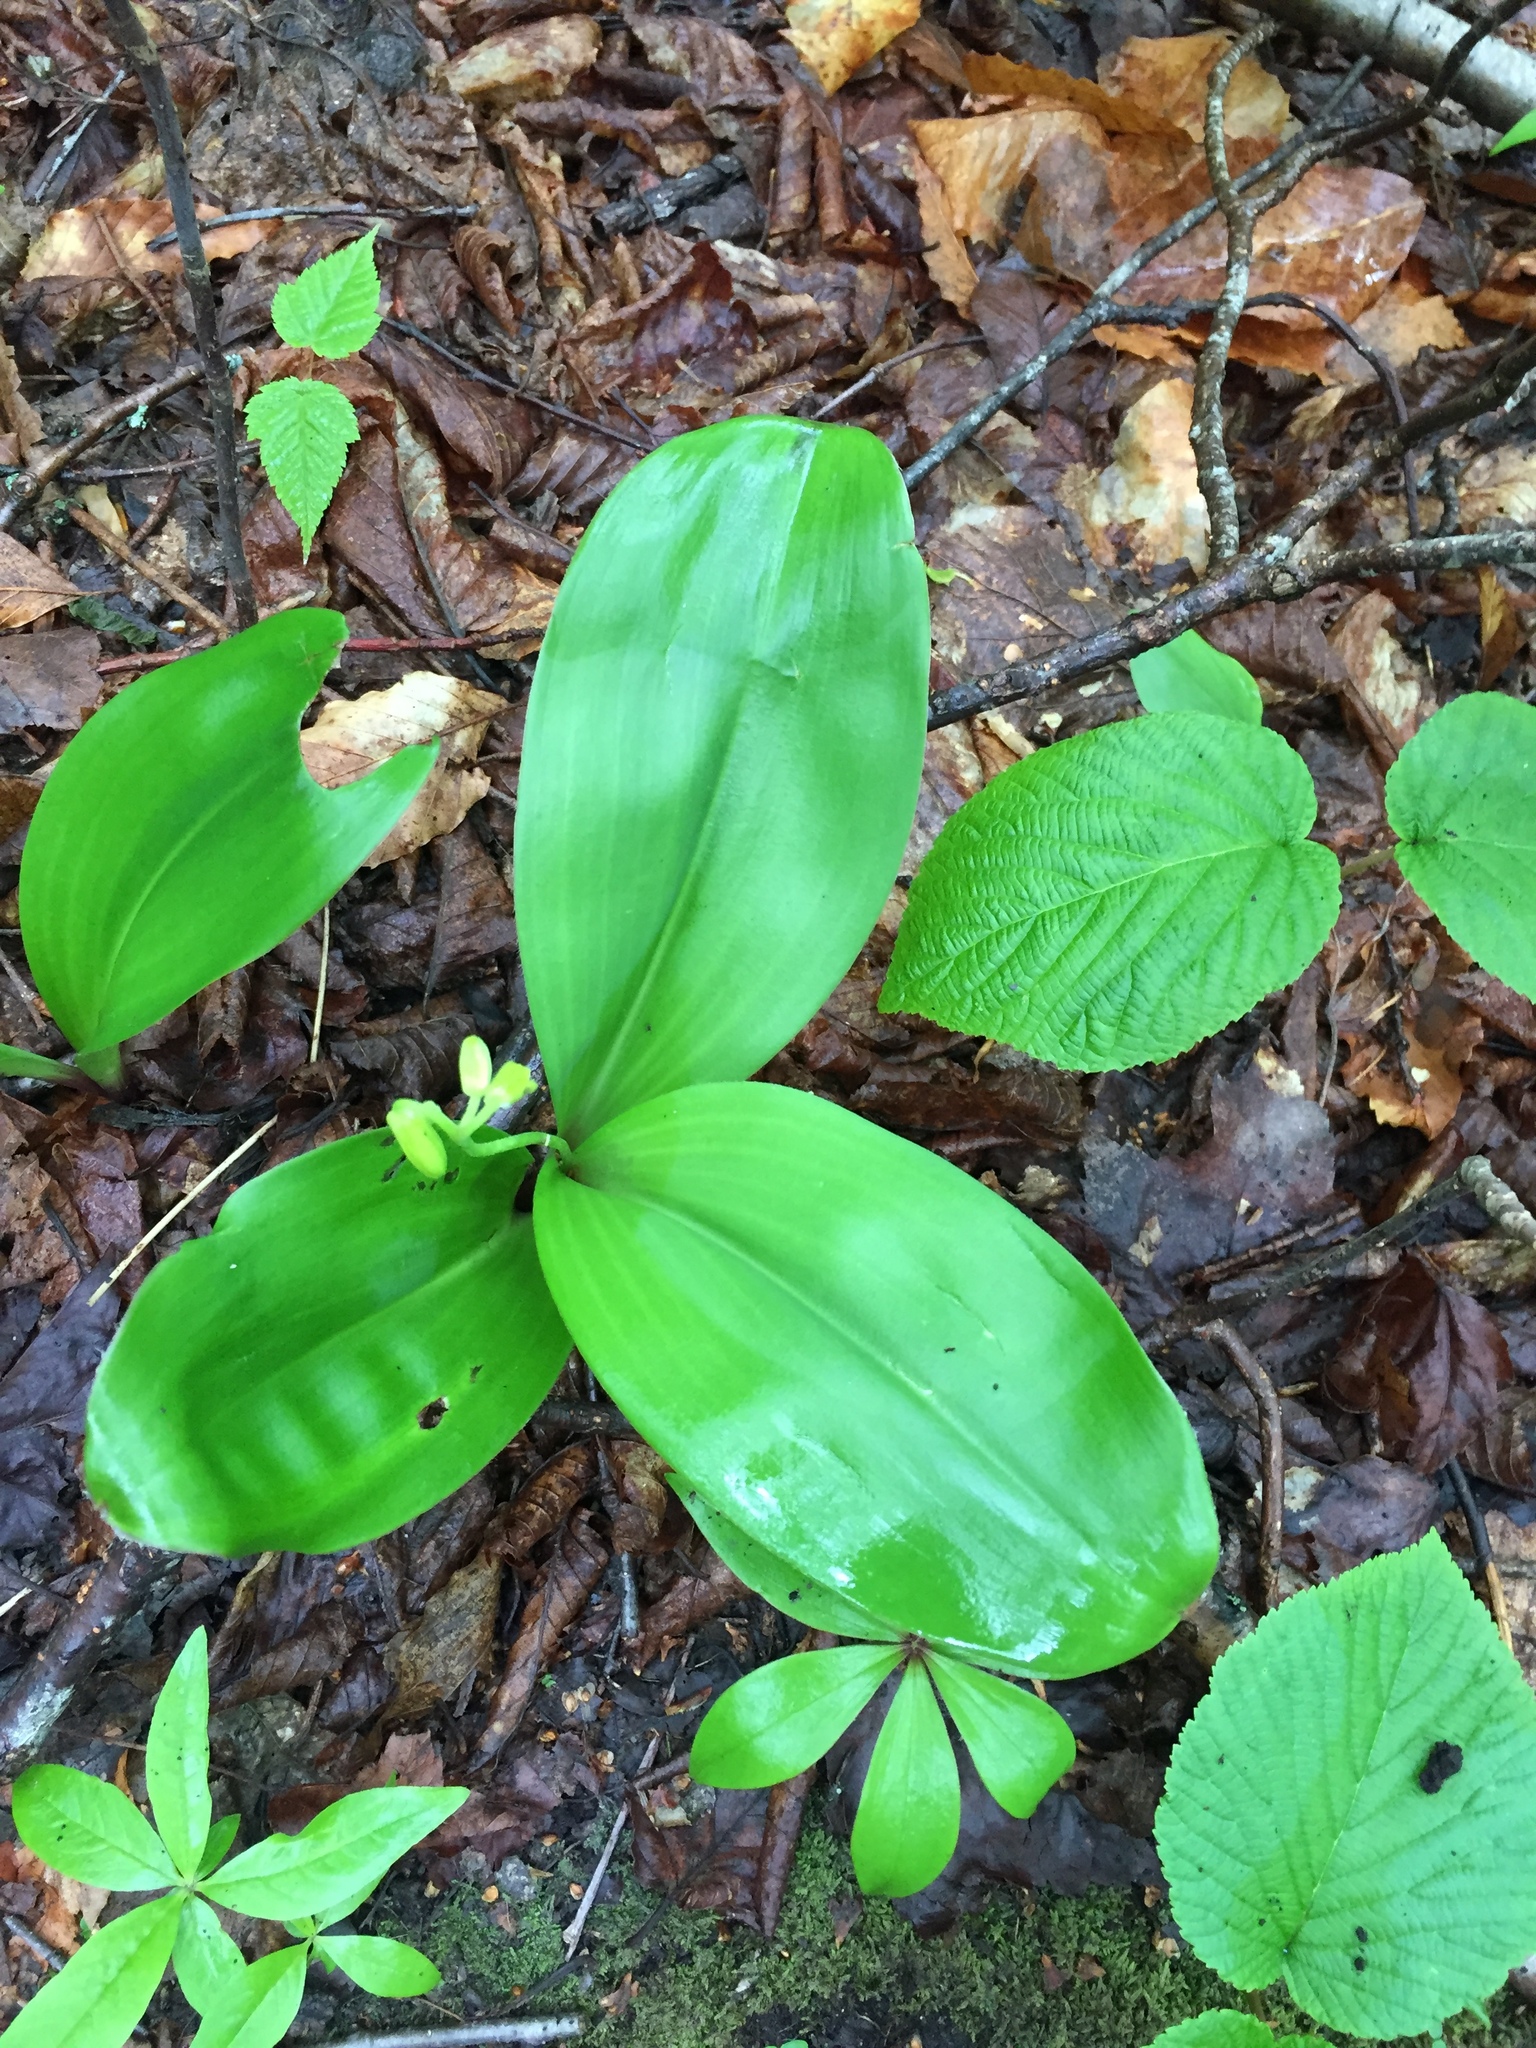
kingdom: Plantae
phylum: Tracheophyta
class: Liliopsida
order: Liliales
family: Liliaceae
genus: Clintonia
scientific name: Clintonia borealis
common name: Yellow clintonia
